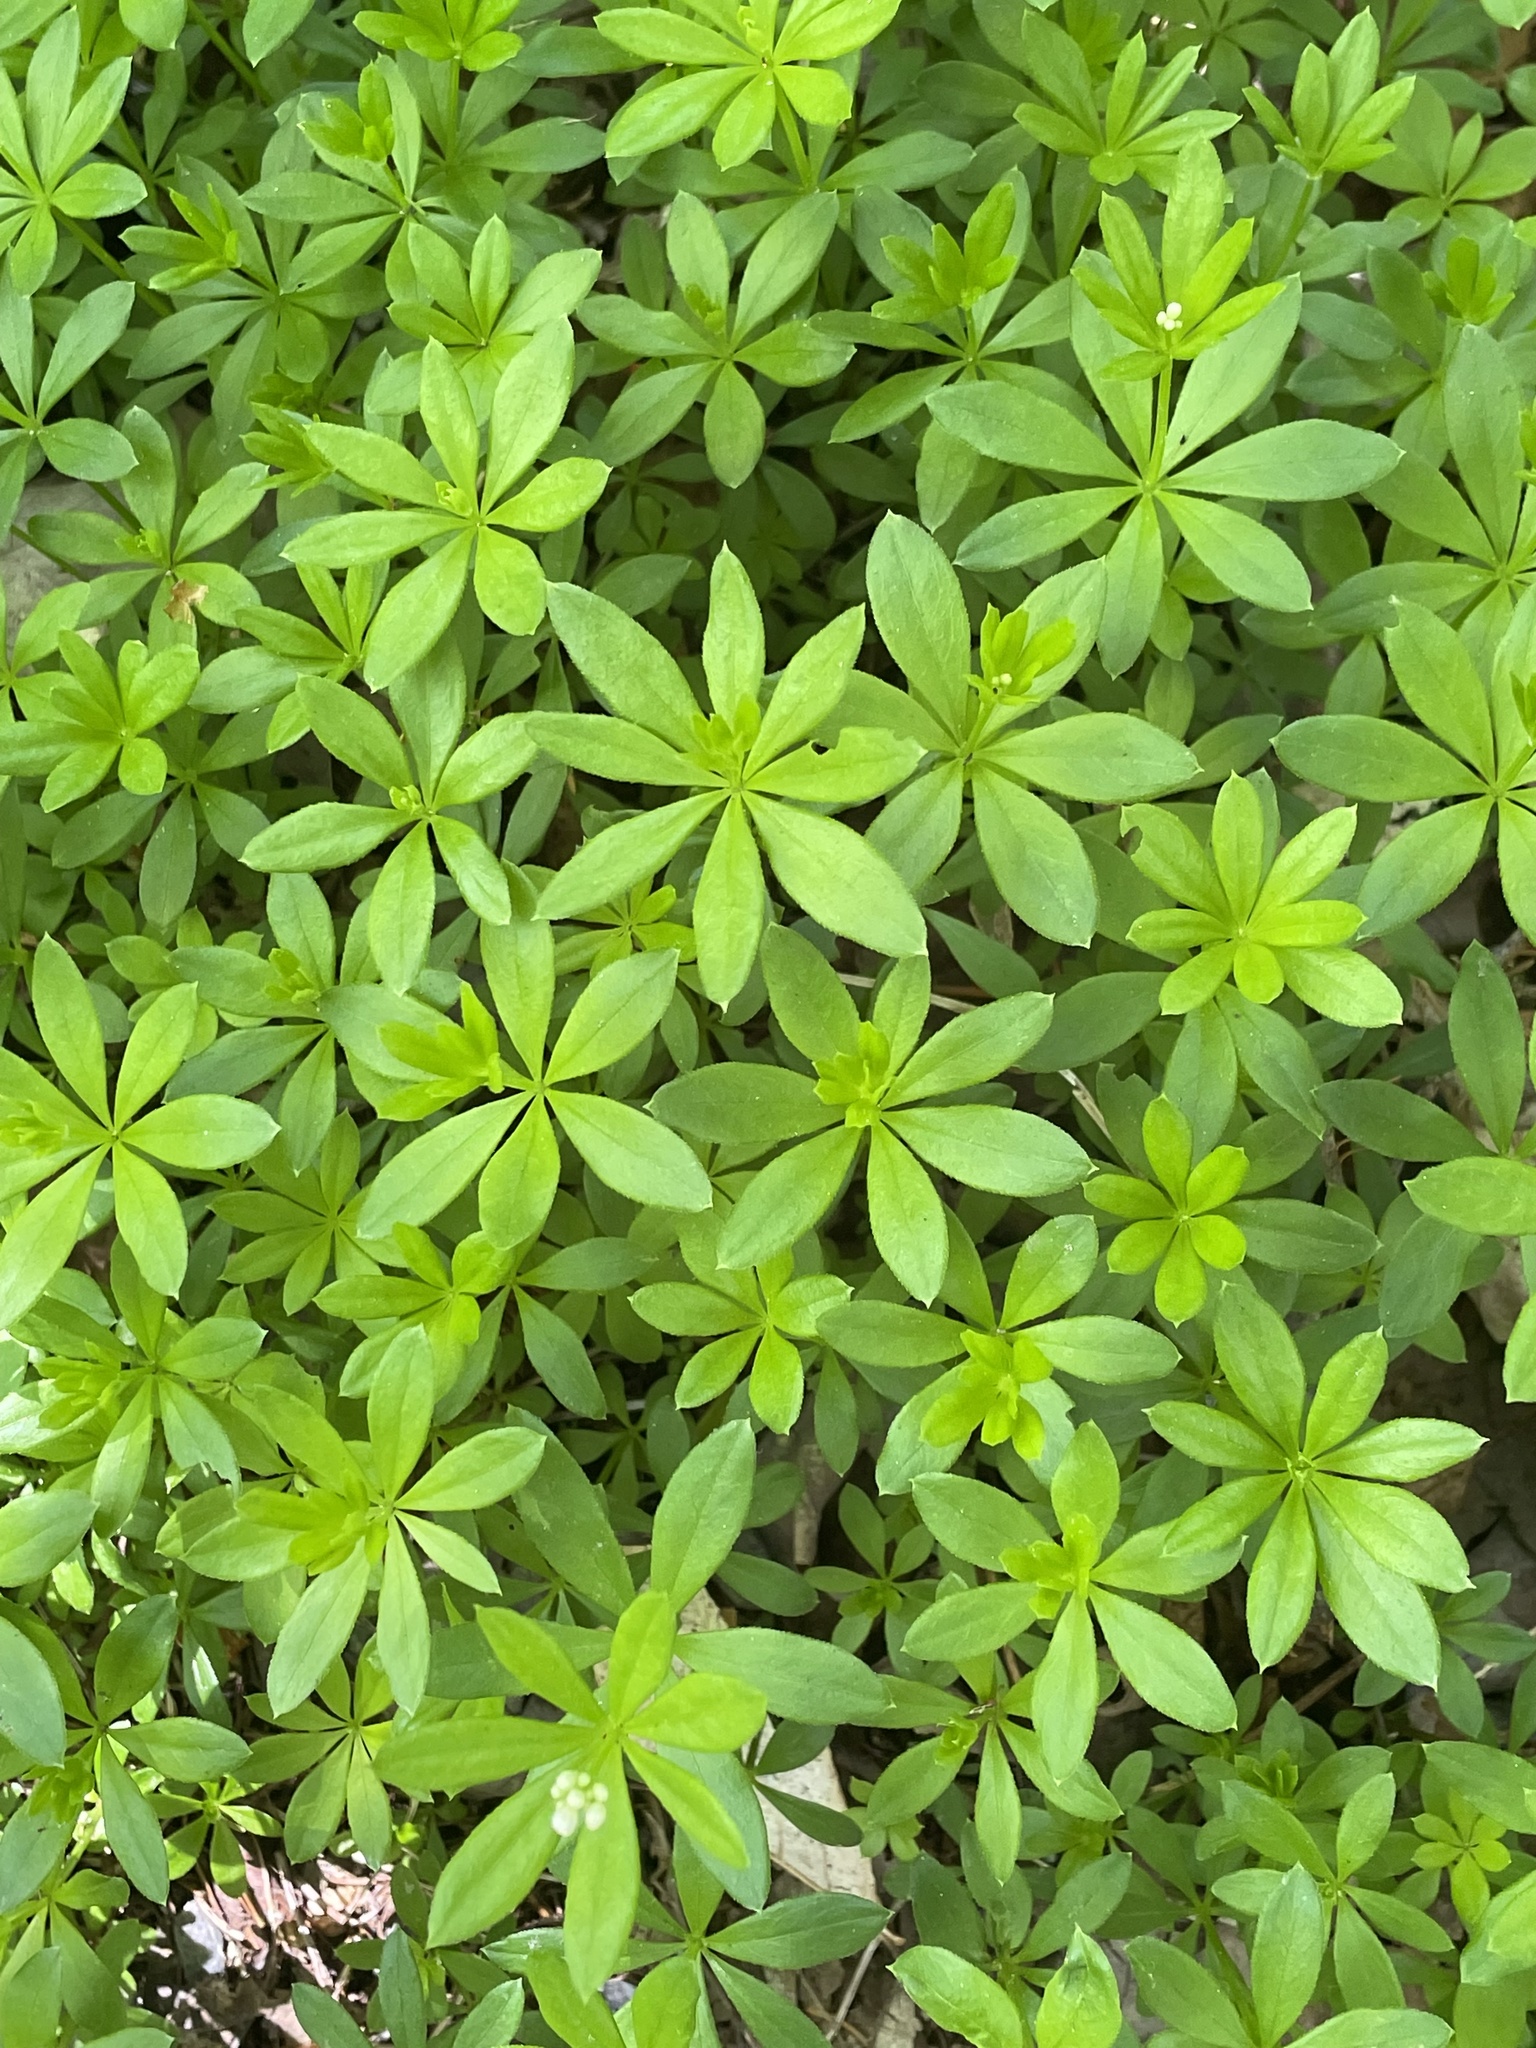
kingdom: Plantae
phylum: Tracheophyta
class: Magnoliopsida
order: Gentianales
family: Rubiaceae
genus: Galium
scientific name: Galium odoratum
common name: Sweet woodruff
